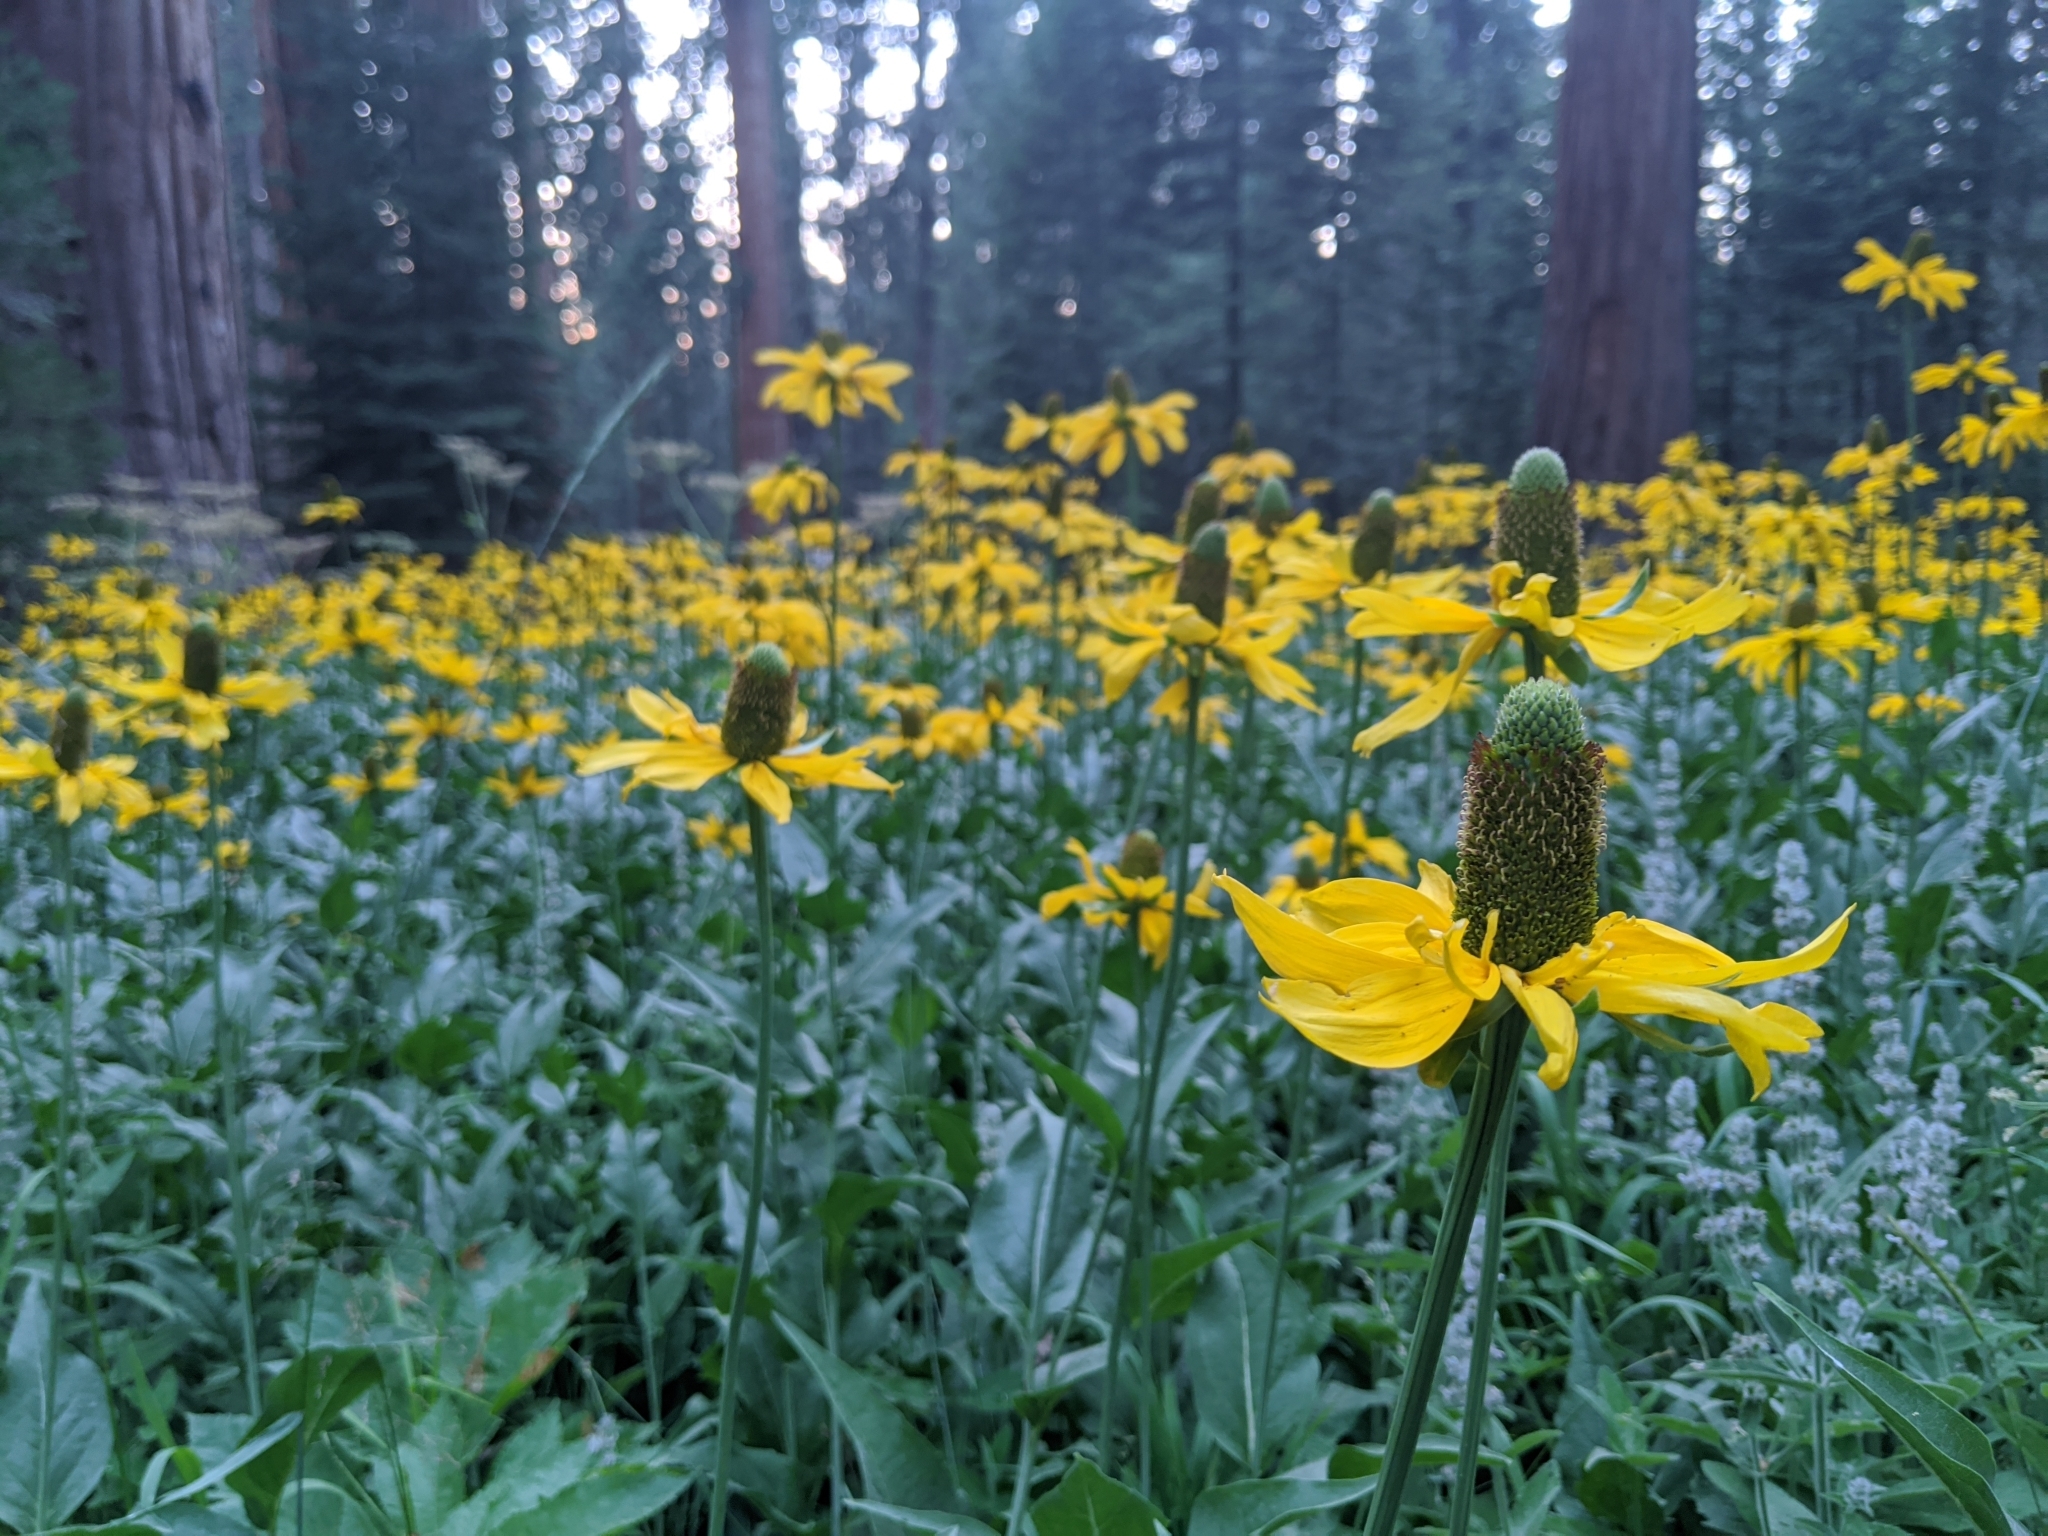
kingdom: Plantae
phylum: Tracheophyta
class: Magnoliopsida
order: Asterales
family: Asteraceae
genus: Rudbeckia
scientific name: Rudbeckia californica
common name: California coneflower
